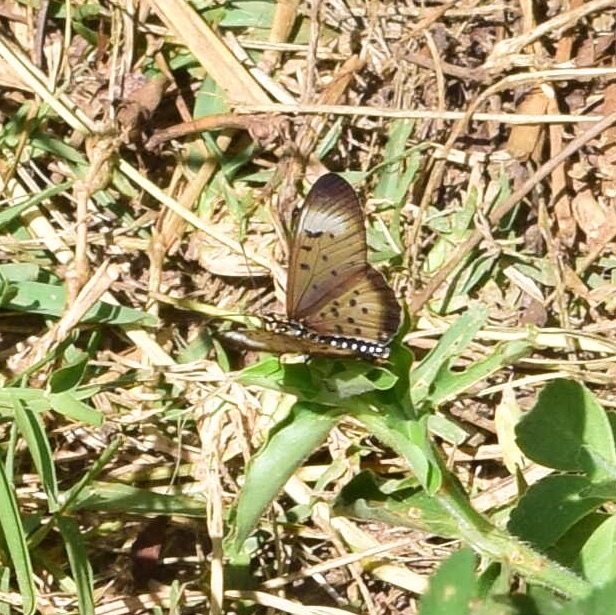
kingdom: Animalia
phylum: Arthropoda
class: Insecta
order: Lepidoptera
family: Nymphalidae
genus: Stephenia
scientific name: Stephenia
